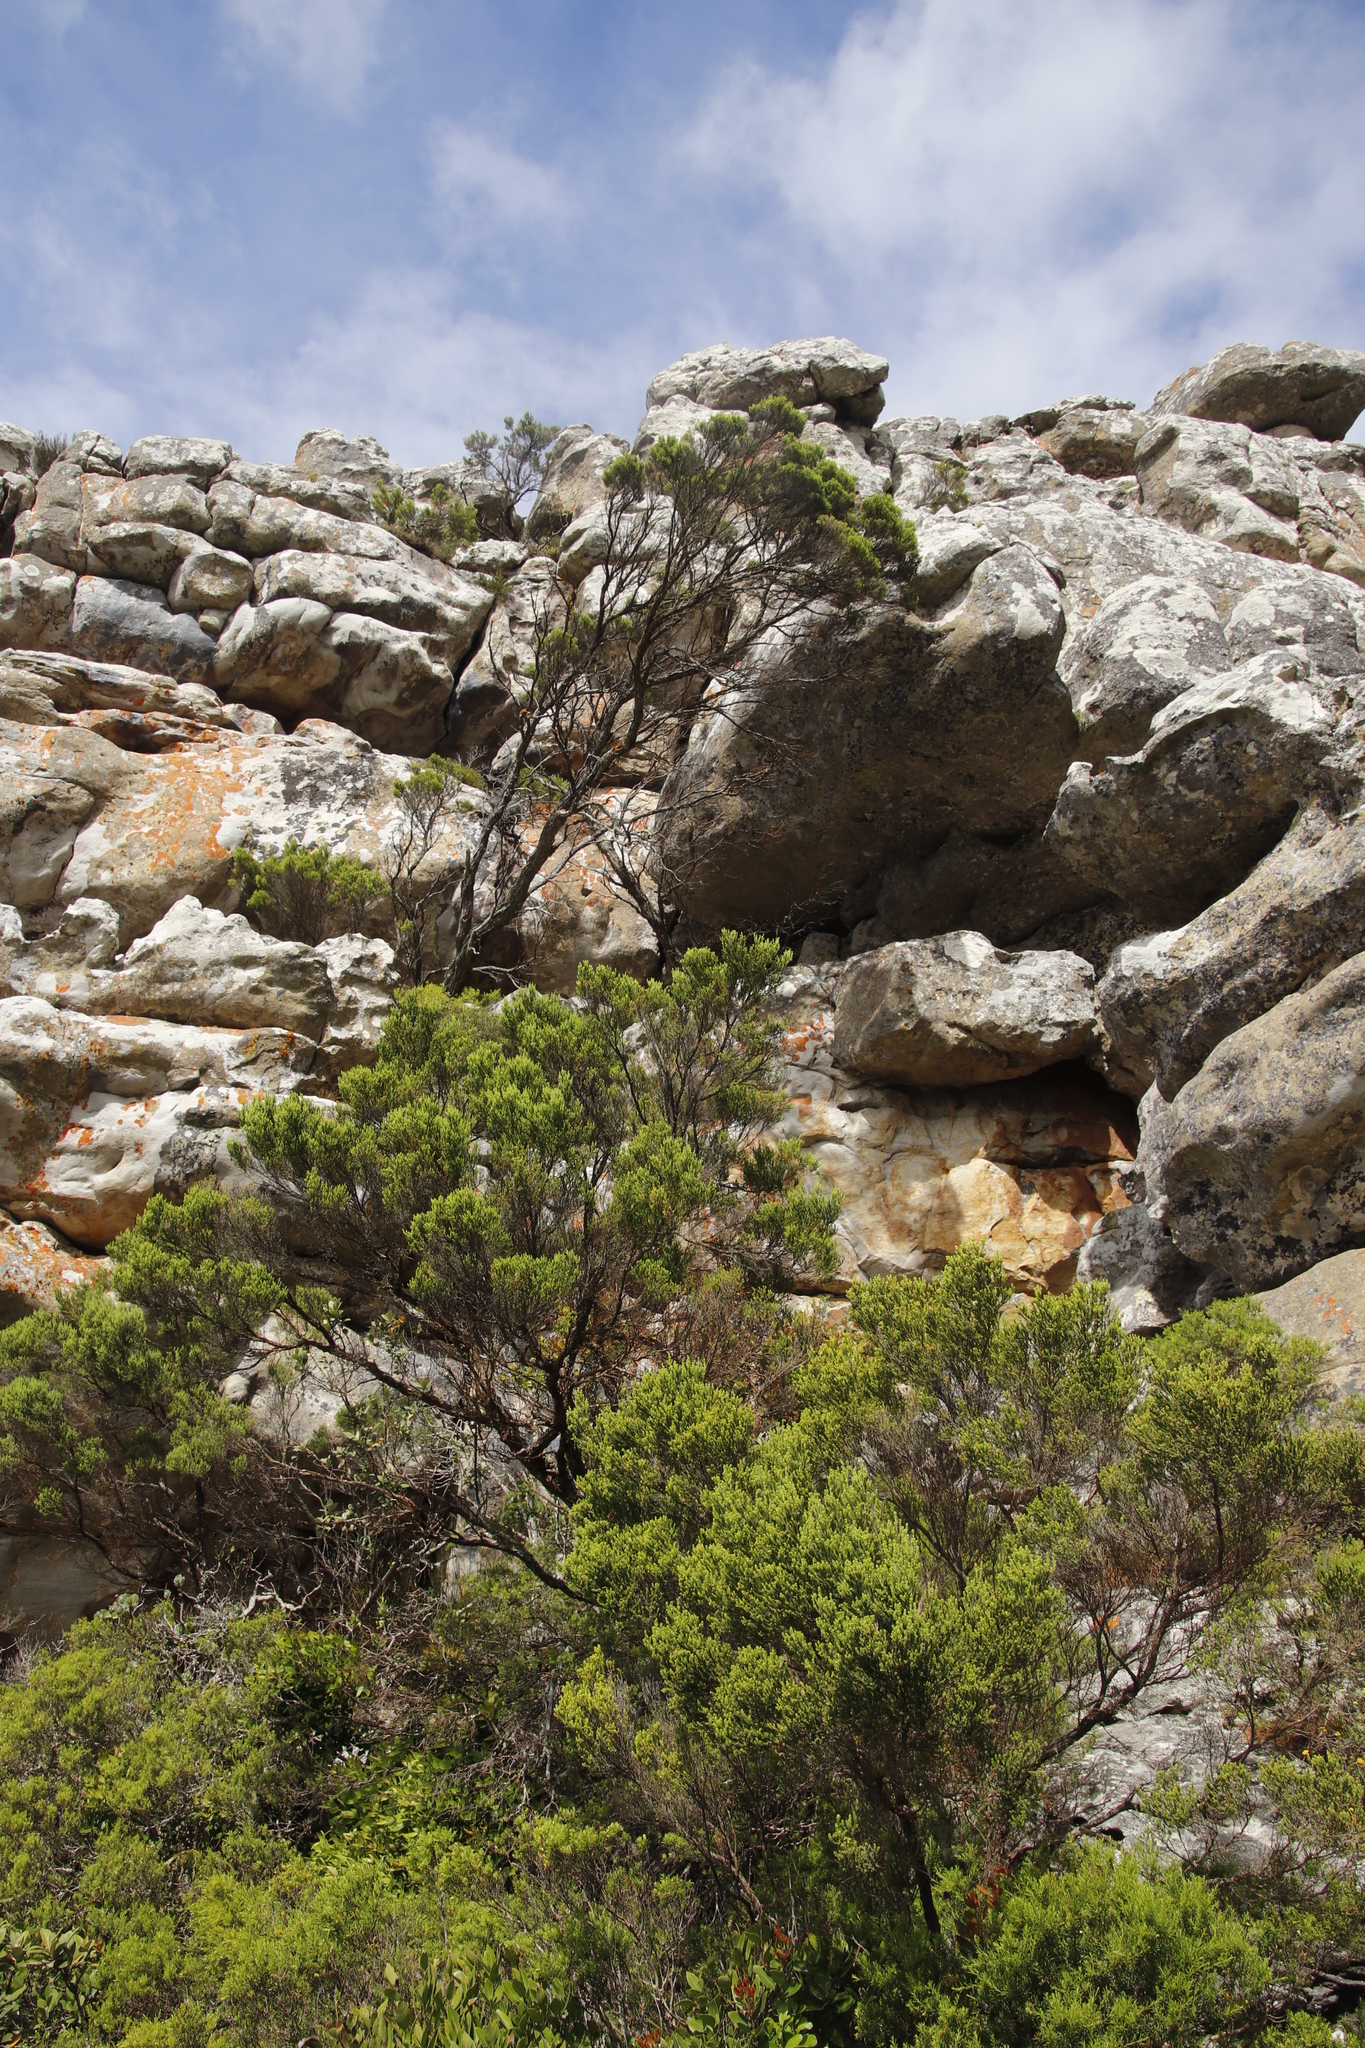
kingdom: Plantae
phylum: Tracheophyta
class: Magnoliopsida
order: Ericales
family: Ericaceae
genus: Erica
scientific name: Erica tristis
